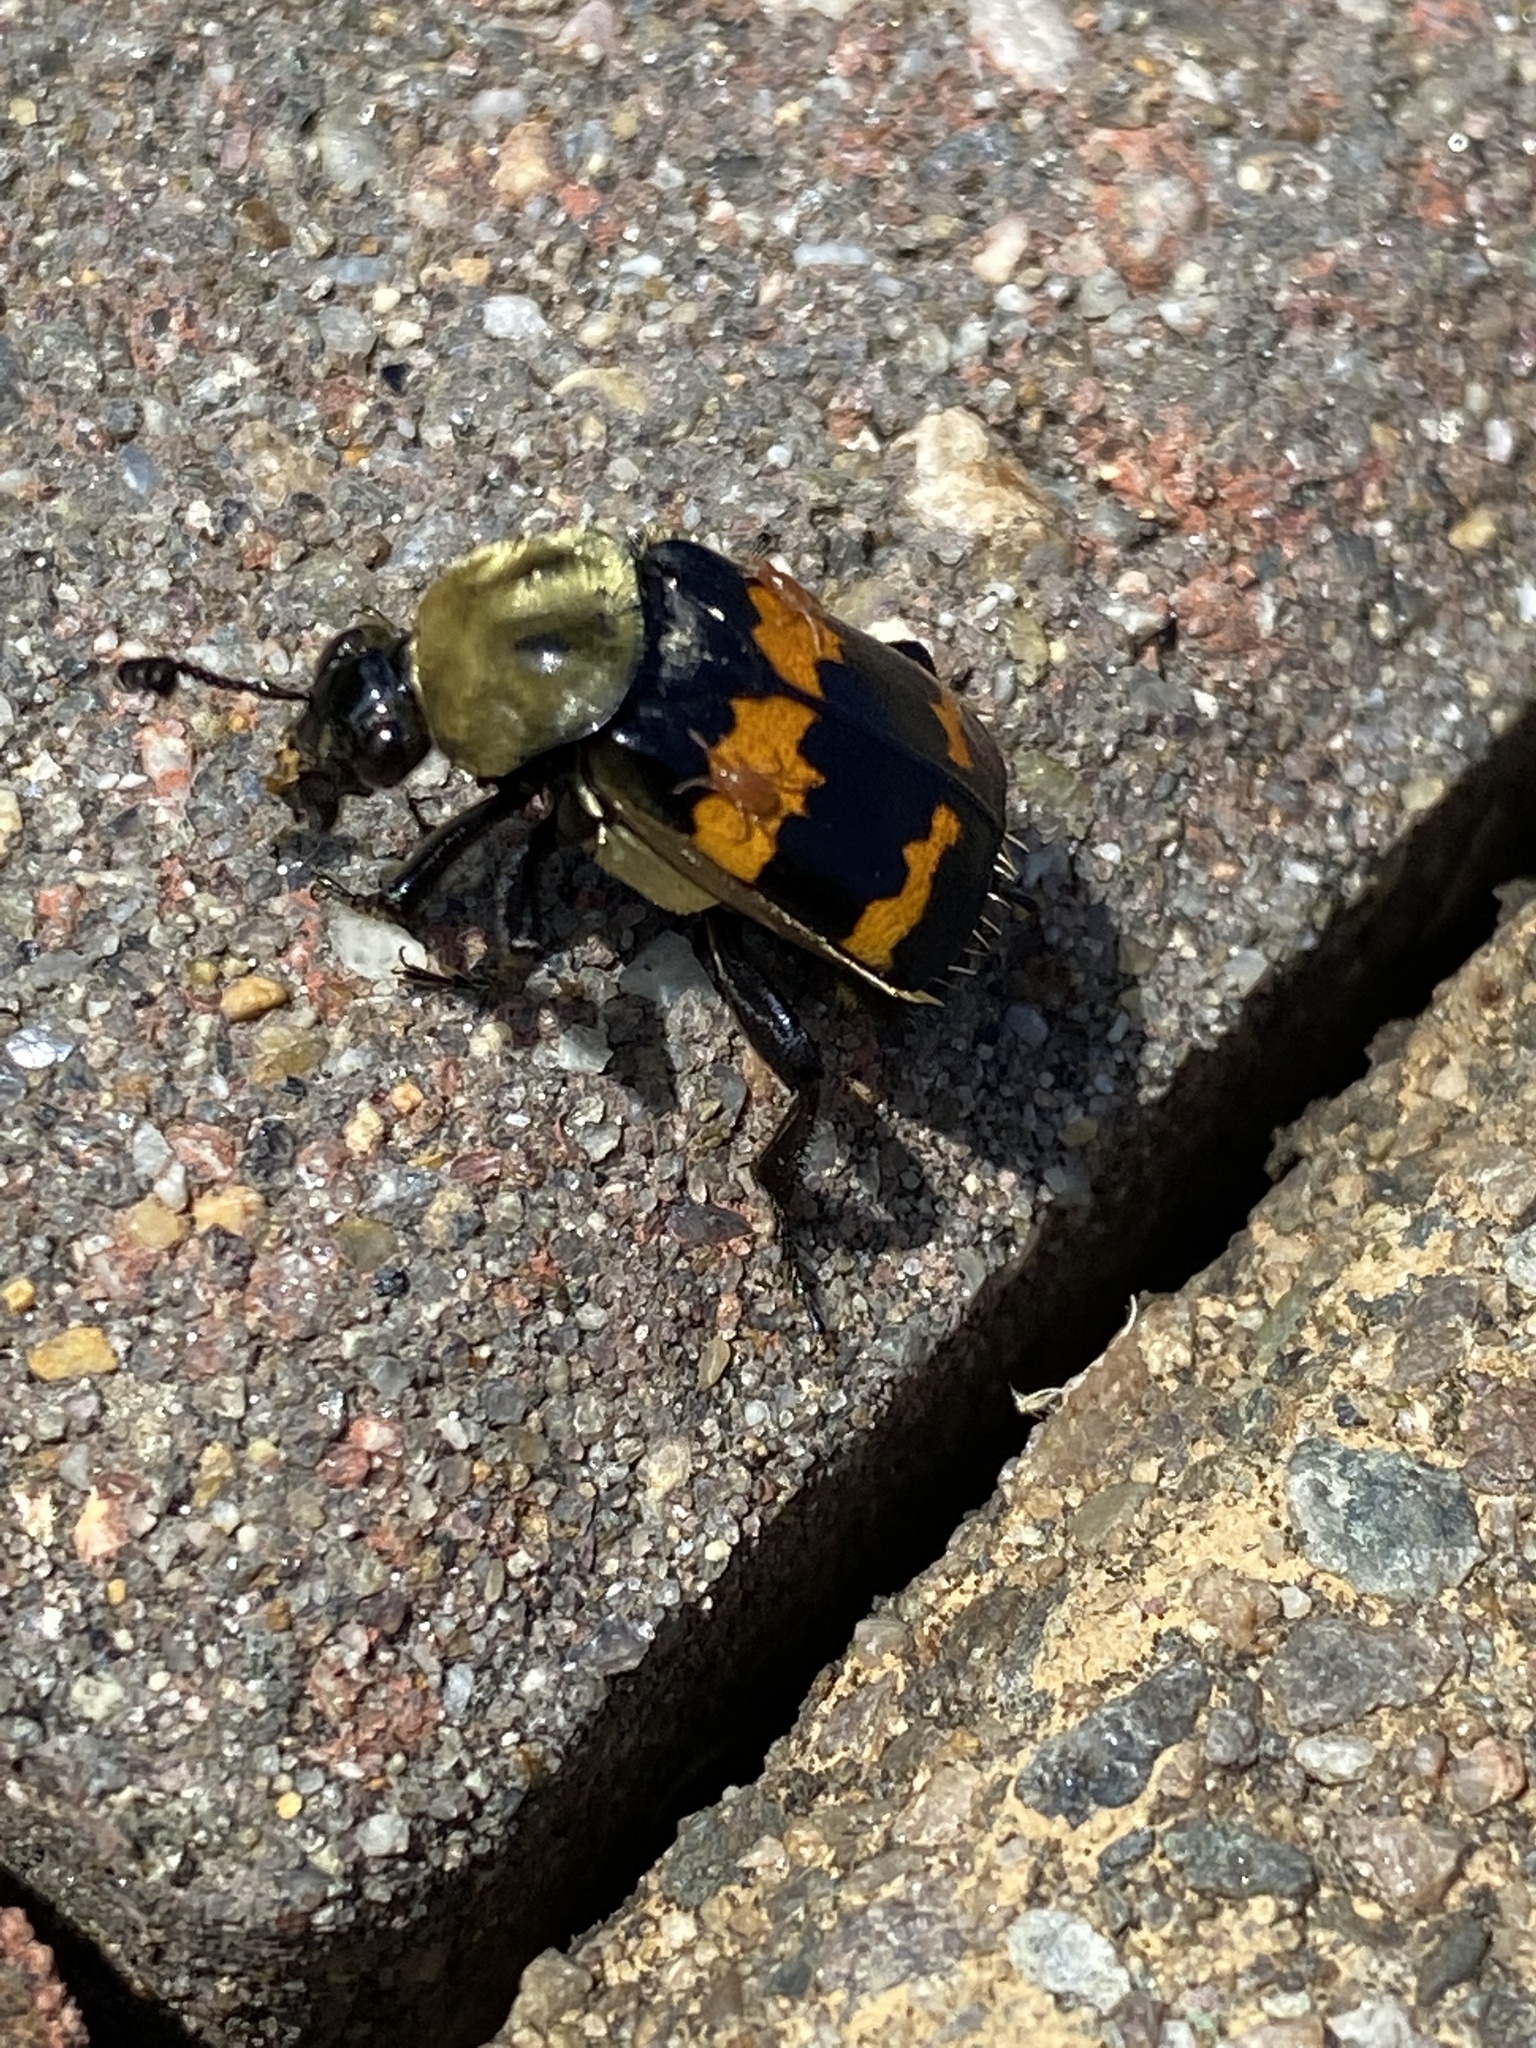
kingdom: Animalia
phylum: Arthropoda
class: Insecta
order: Coleoptera
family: Staphylinidae
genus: Nicrophorus
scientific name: Nicrophorus tomentosus
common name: Tomentose burying beetle
